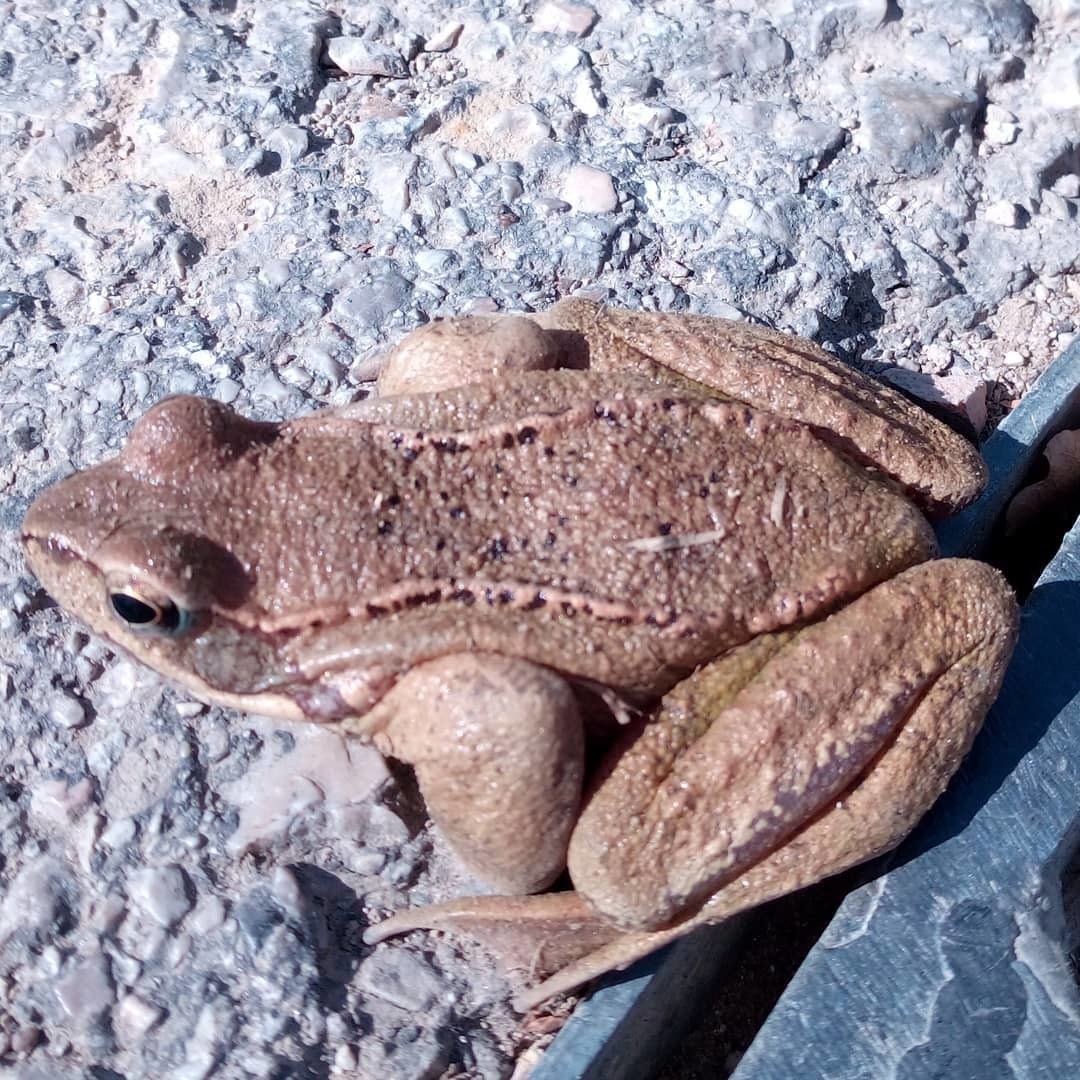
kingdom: Animalia
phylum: Chordata
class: Amphibia
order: Anura
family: Ranidae
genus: Rana
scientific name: Rana temporaria
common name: Common frog
